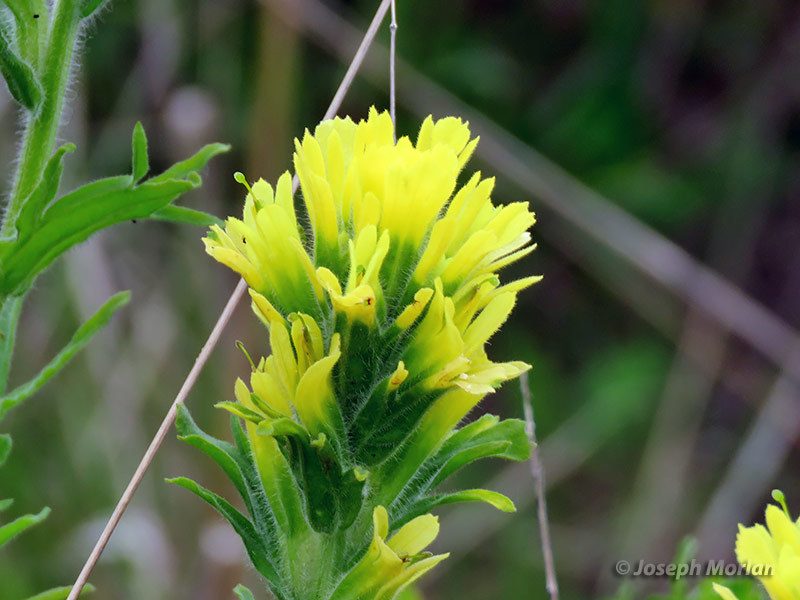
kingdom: Plantae
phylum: Tracheophyta
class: Magnoliopsida
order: Lamiales
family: Orobanchaceae
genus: Castilleja
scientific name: Castilleja wightii
